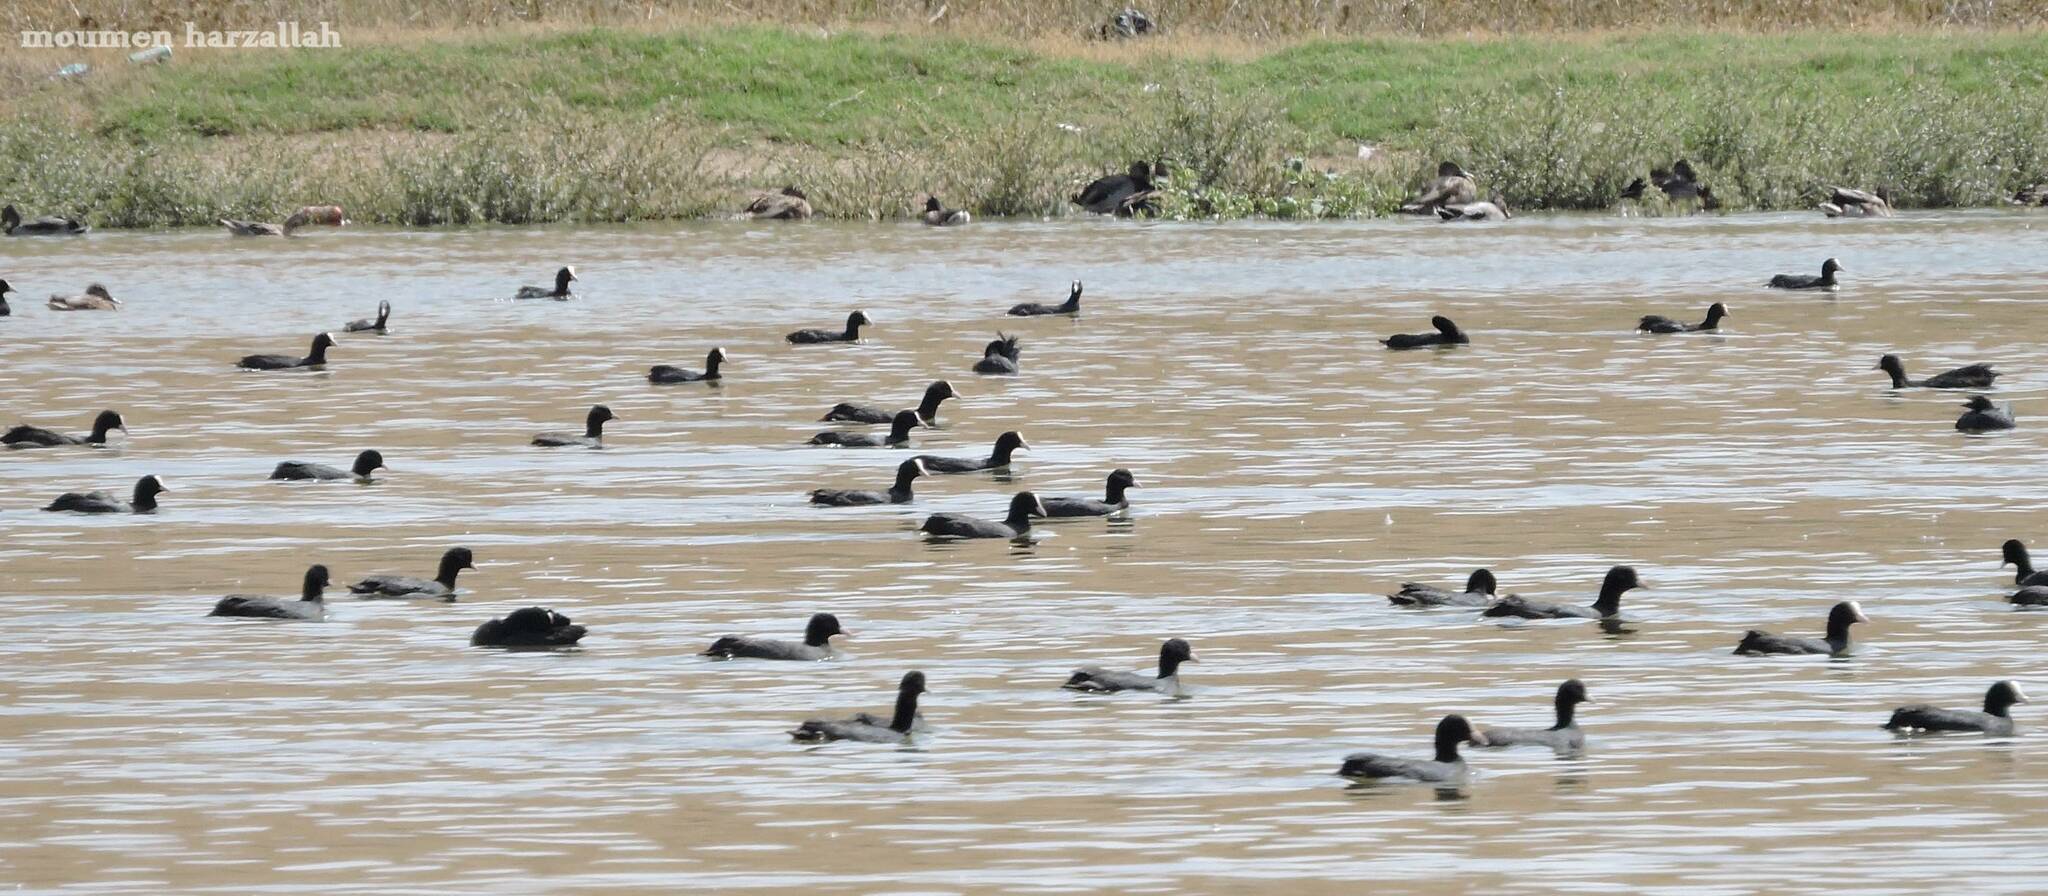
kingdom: Animalia
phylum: Chordata
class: Aves
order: Gruiformes
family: Rallidae
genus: Fulica
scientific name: Fulica atra
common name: Eurasian coot
